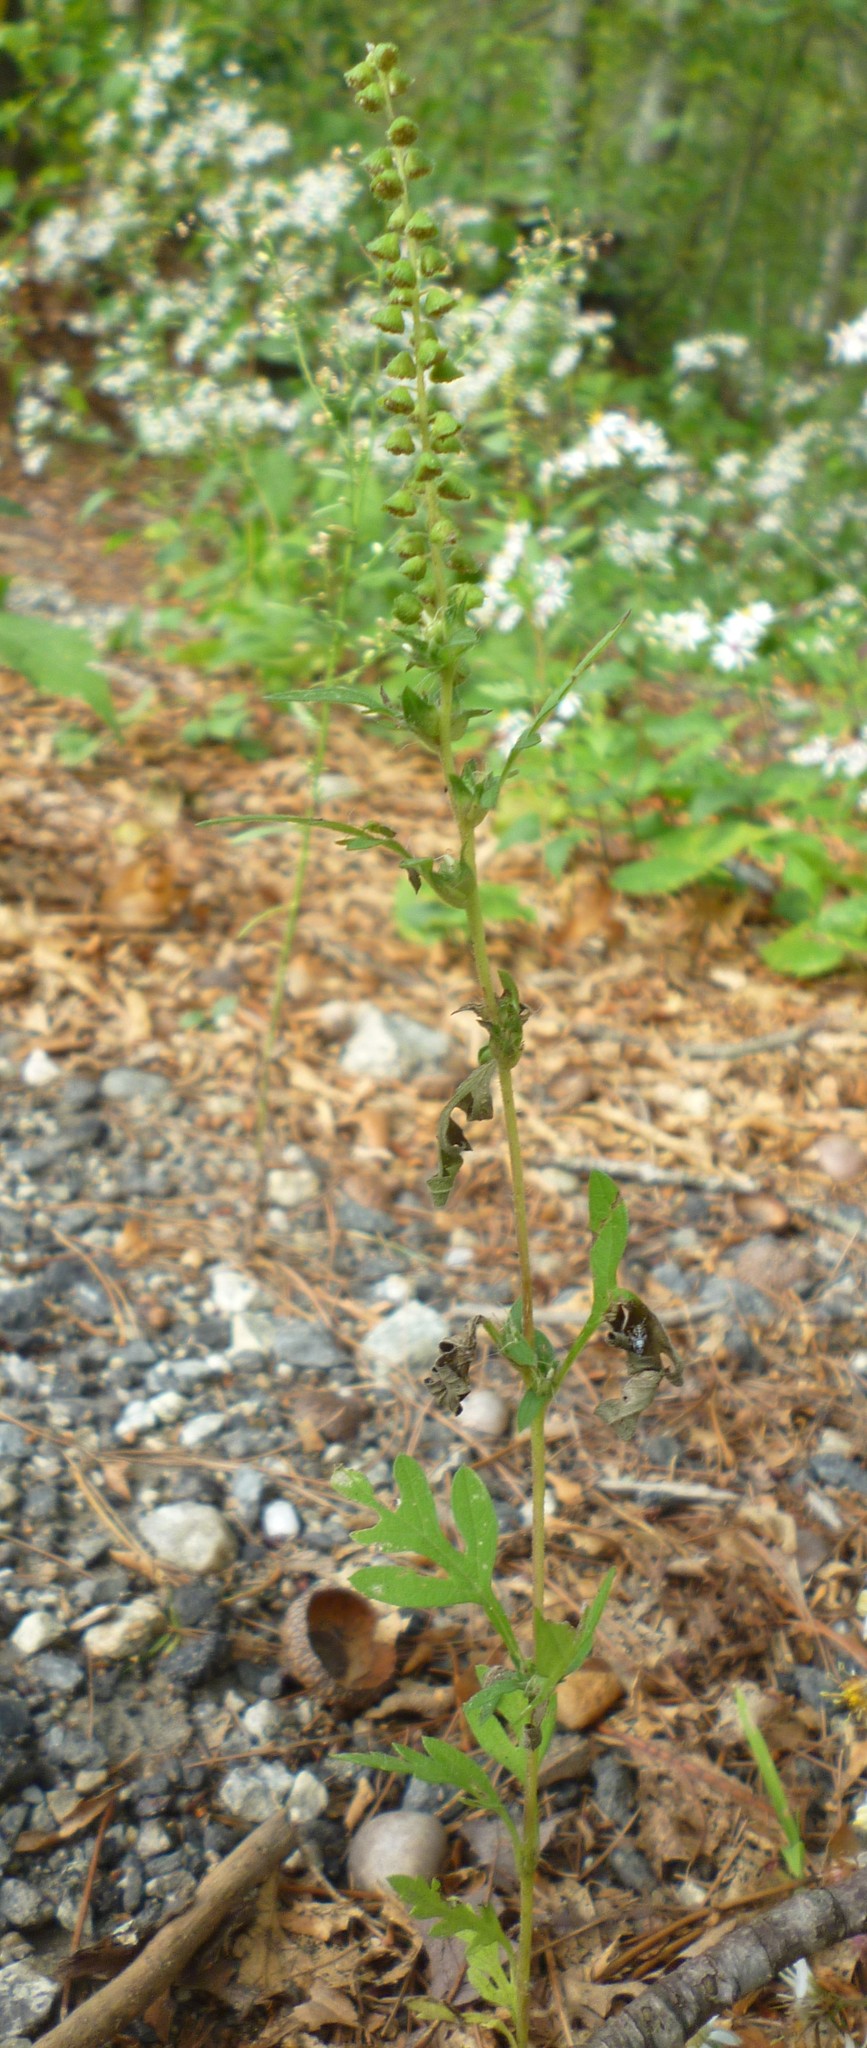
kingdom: Plantae
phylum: Tracheophyta
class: Magnoliopsida
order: Asterales
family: Asteraceae
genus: Ambrosia
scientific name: Ambrosia artemisiifolia
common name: Annual ragweed
